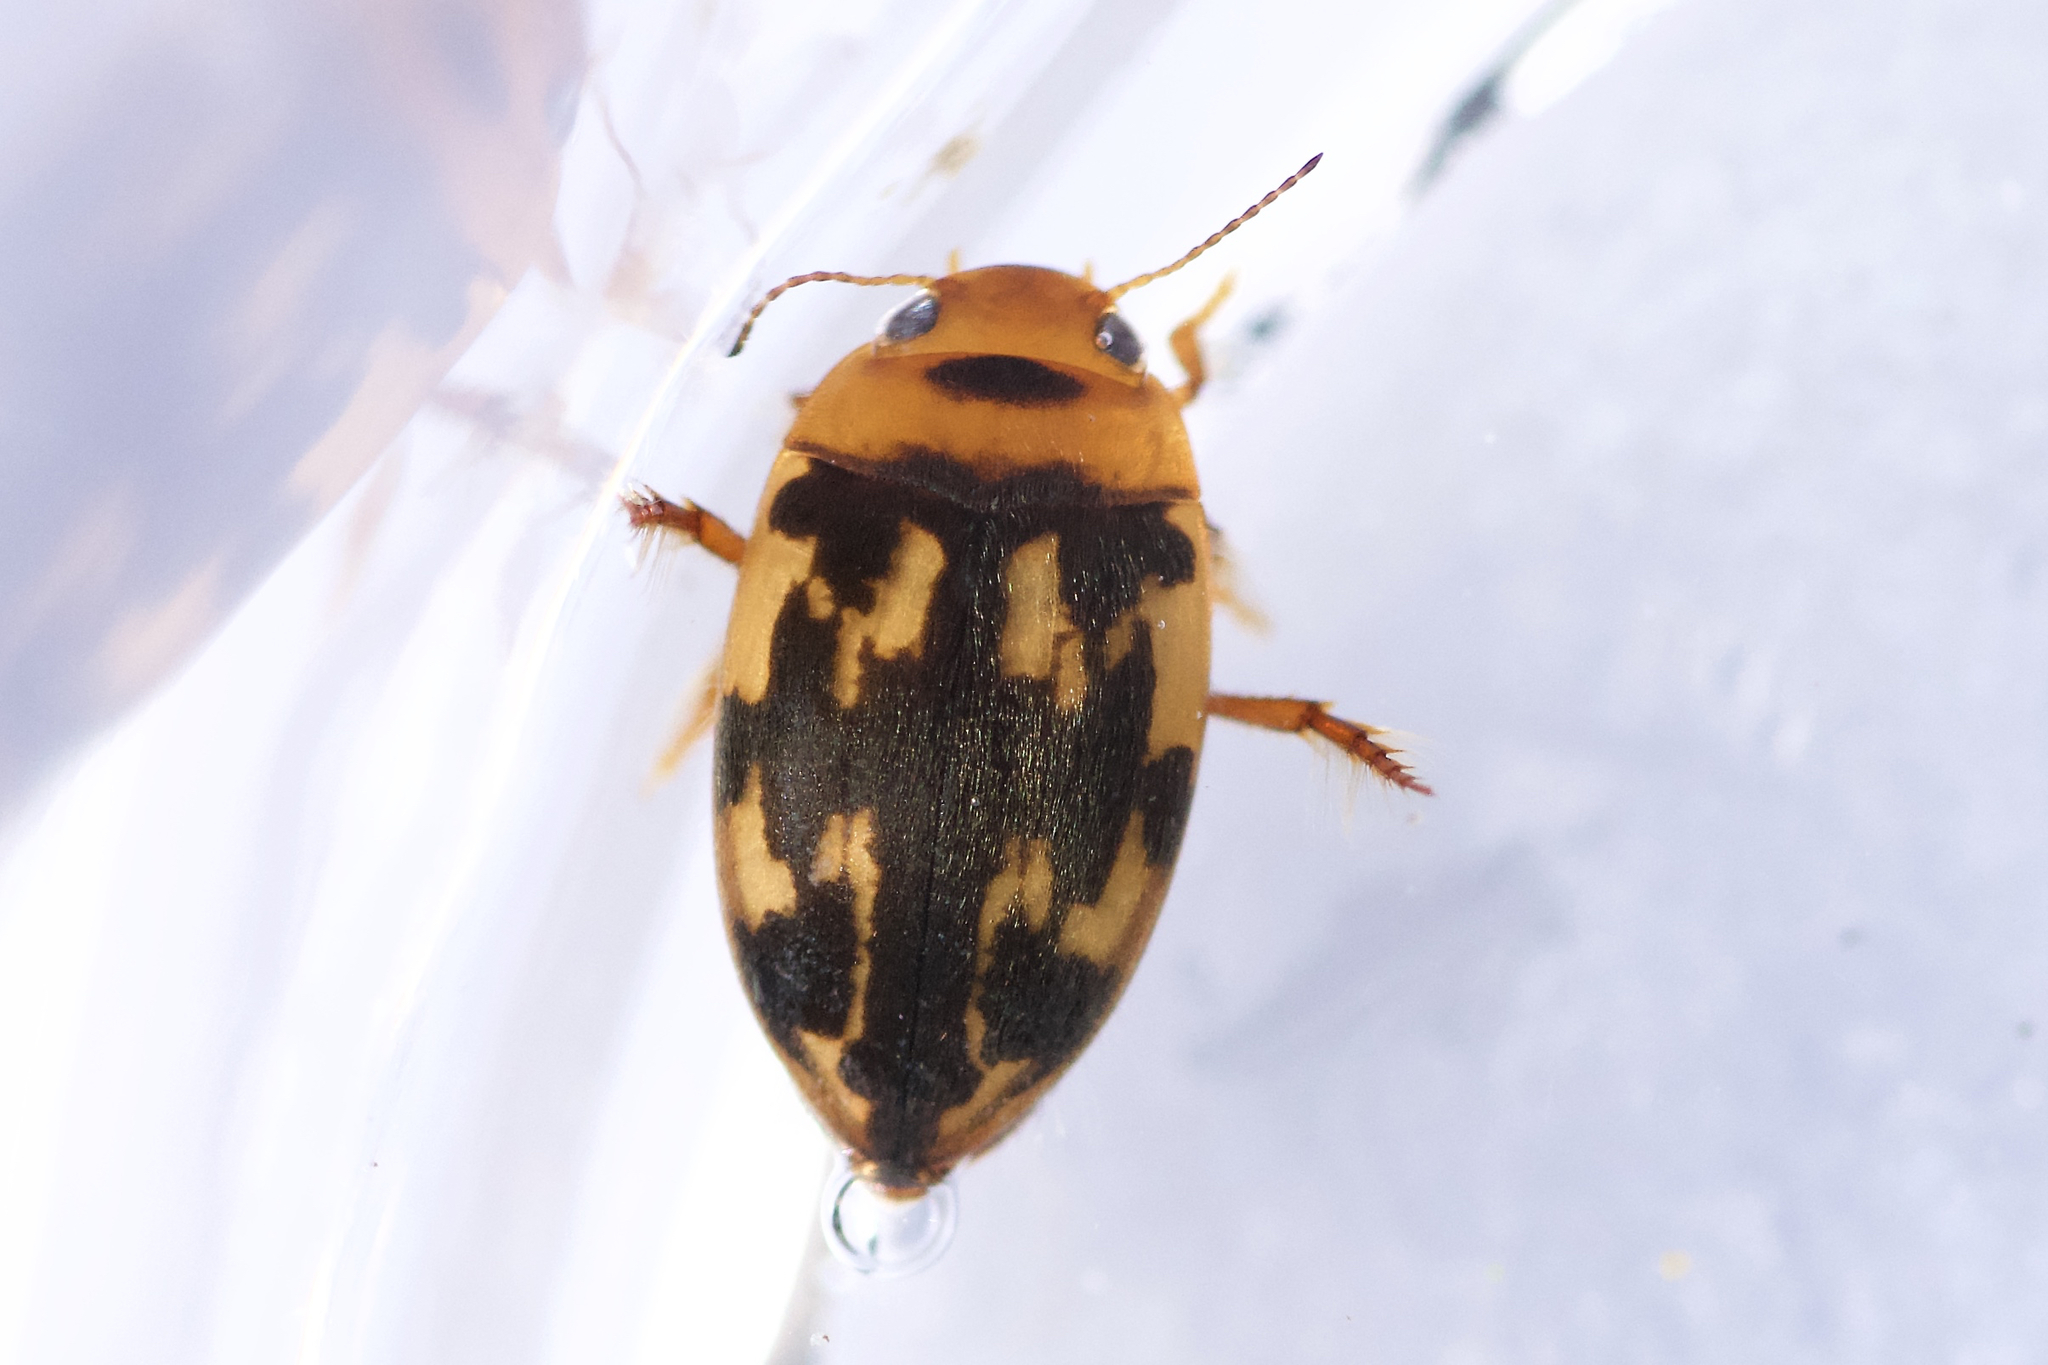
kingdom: Animalia
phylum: Arthropoda
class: Insecta
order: Coleoptera
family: Dytiscidae
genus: Neoporus
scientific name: Neoporus undulatus
